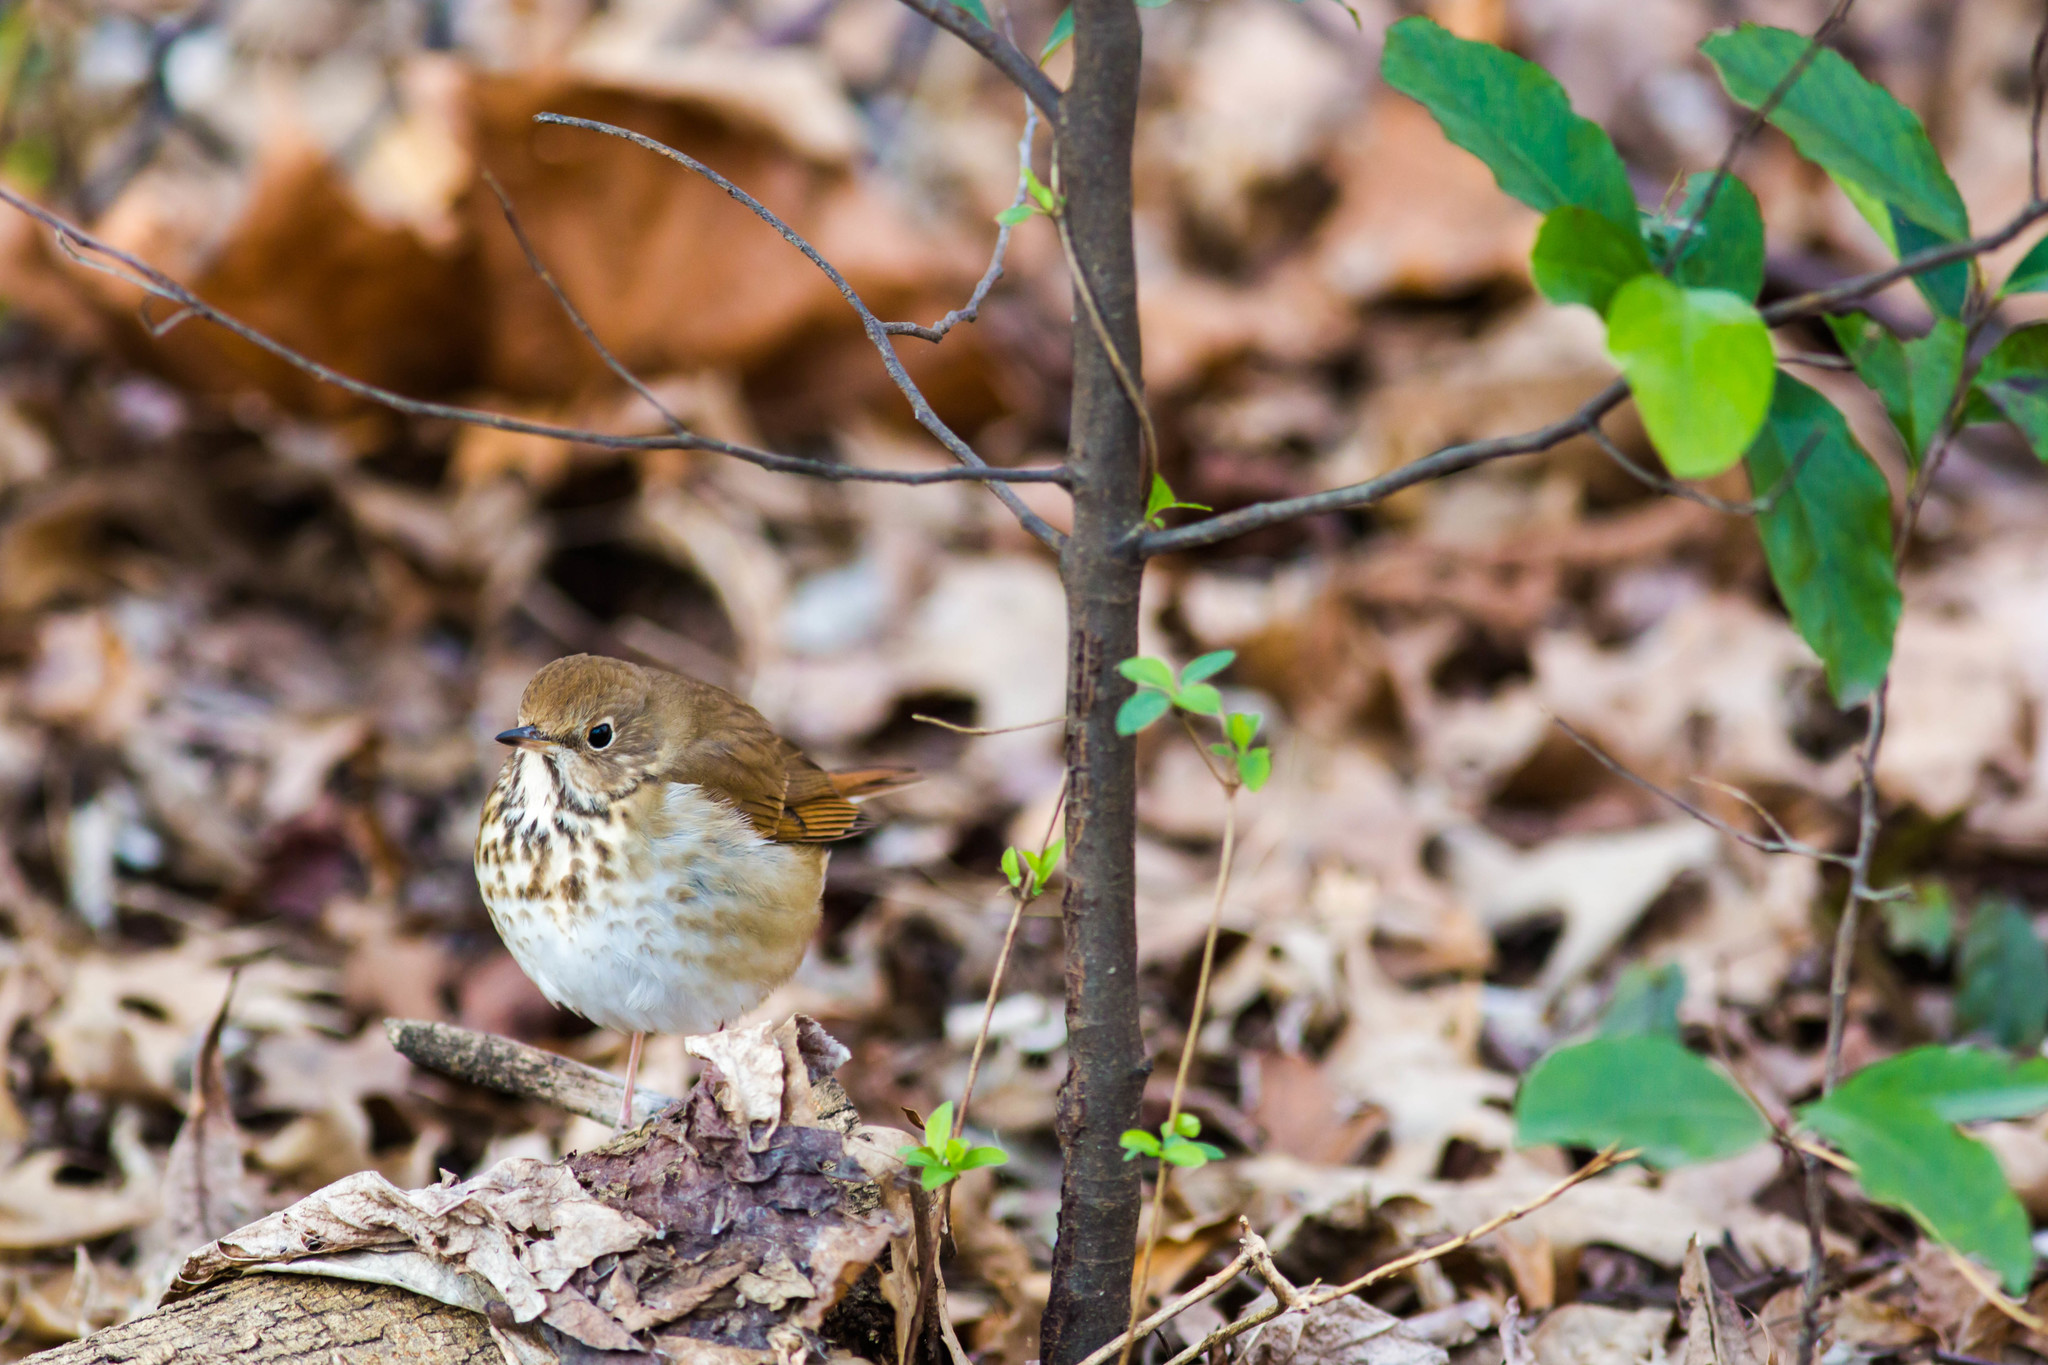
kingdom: Animalia
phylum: Chordata
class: Aves
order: Passeriformes
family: Turdidae
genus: Catharus
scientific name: Catharus guttatus
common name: Hermit thrush
